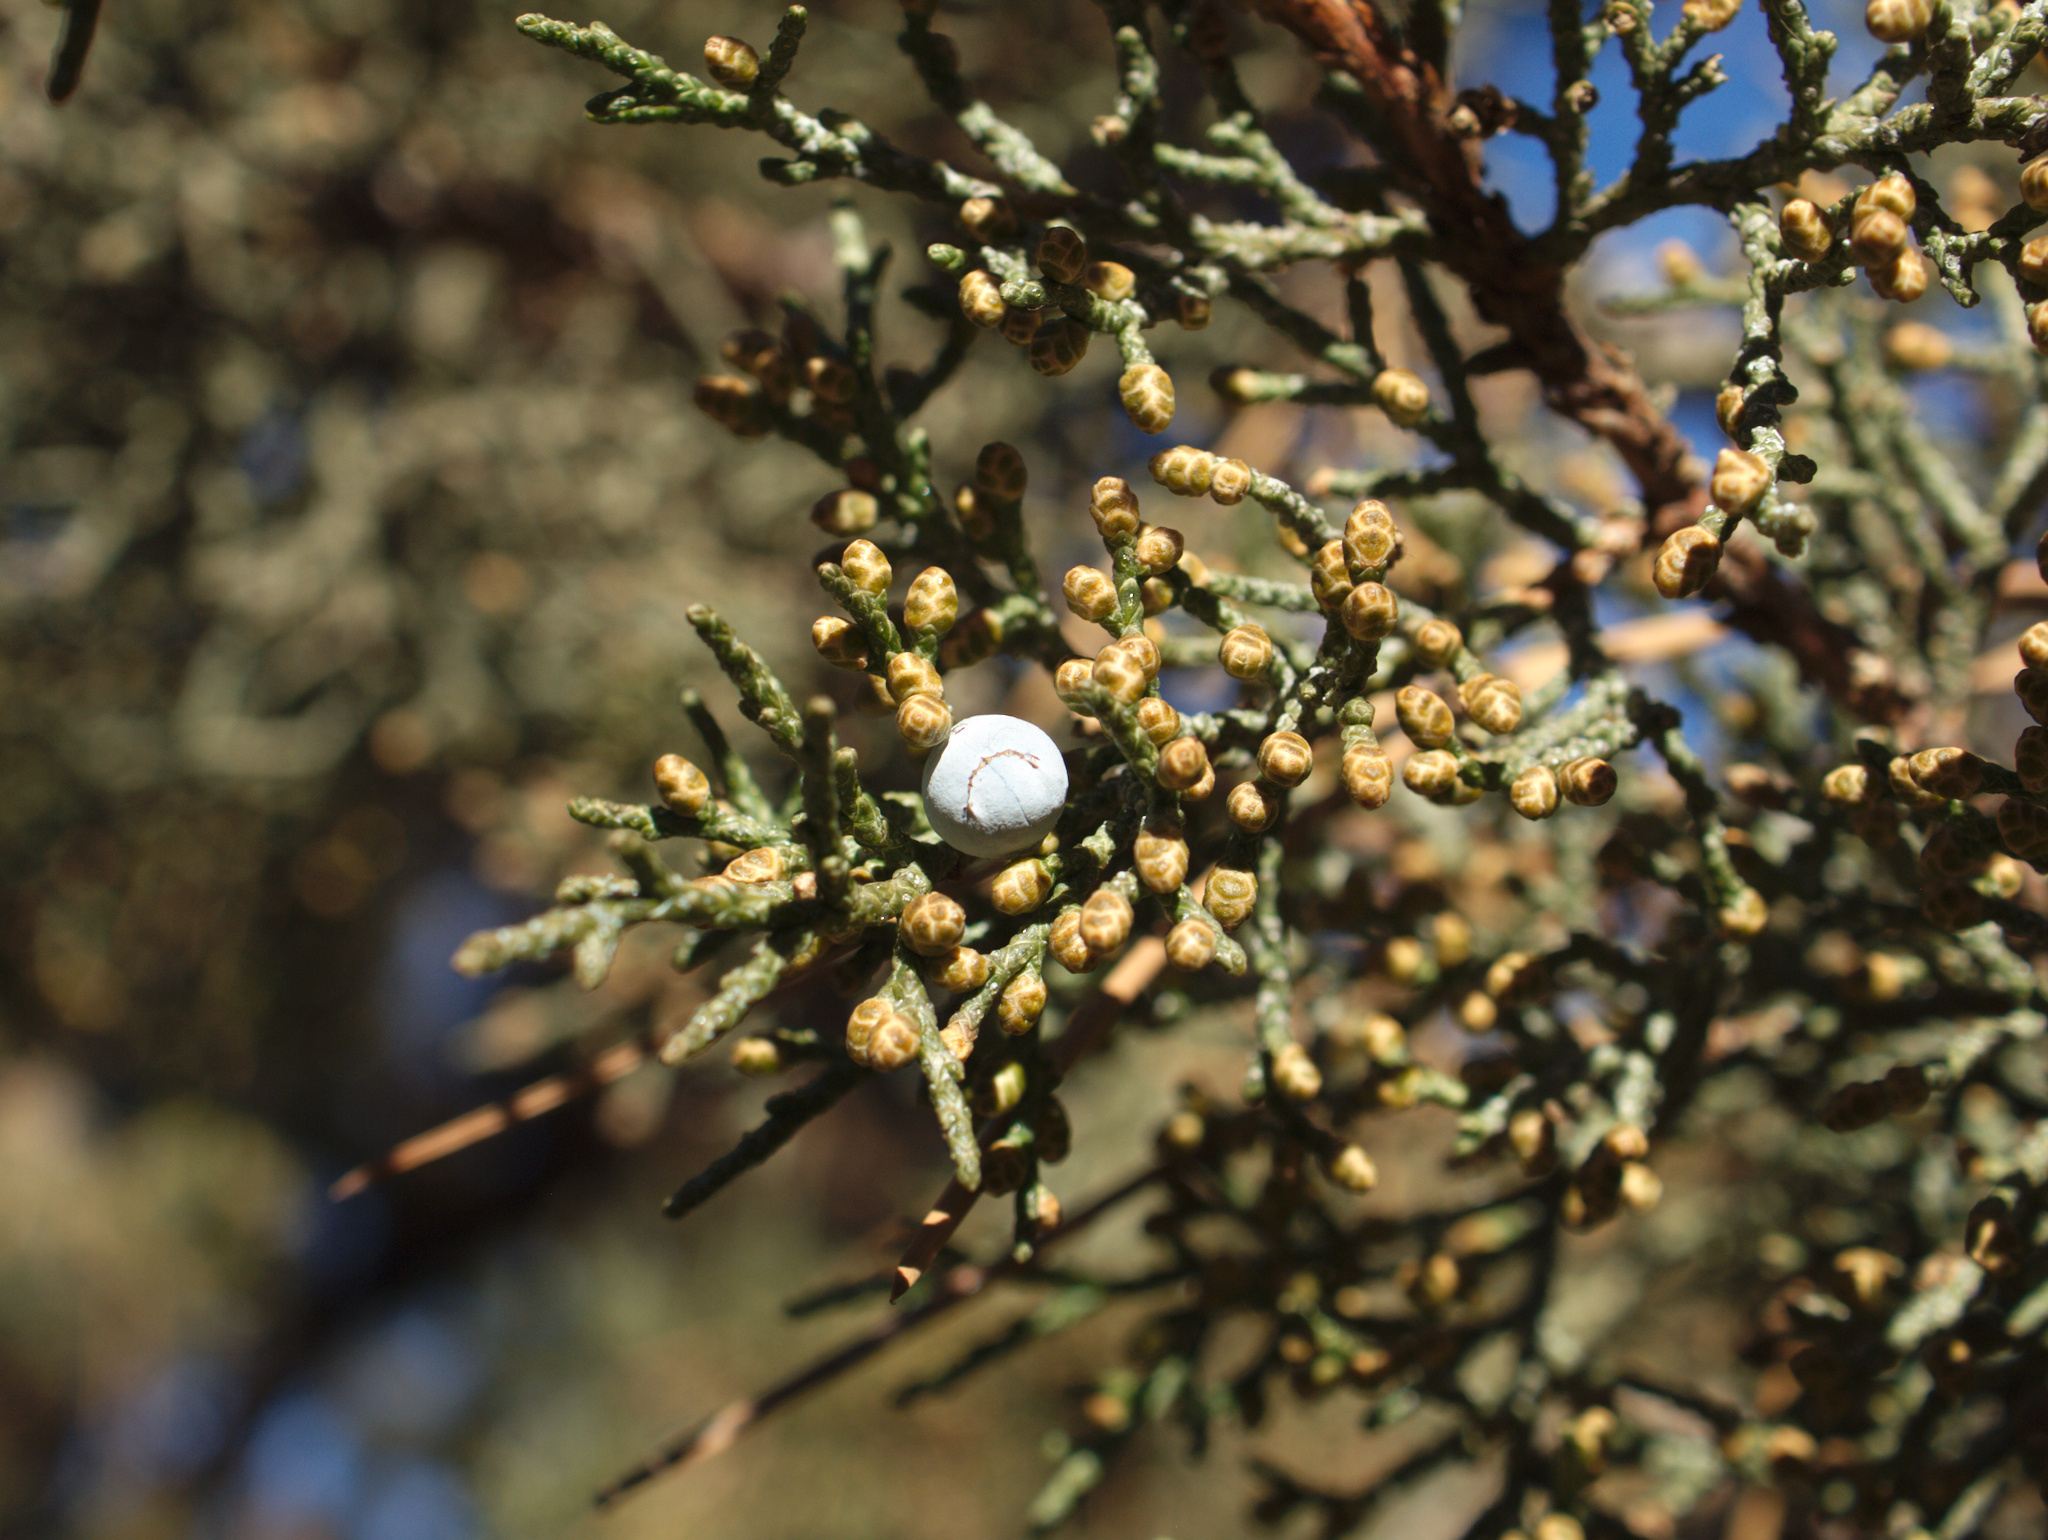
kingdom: Plantae
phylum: Tracheophyta
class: Pinopsida
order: Pinales
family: Cupressaceae
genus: Juniperus
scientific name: Juniperus occidentalis
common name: Western juniper
